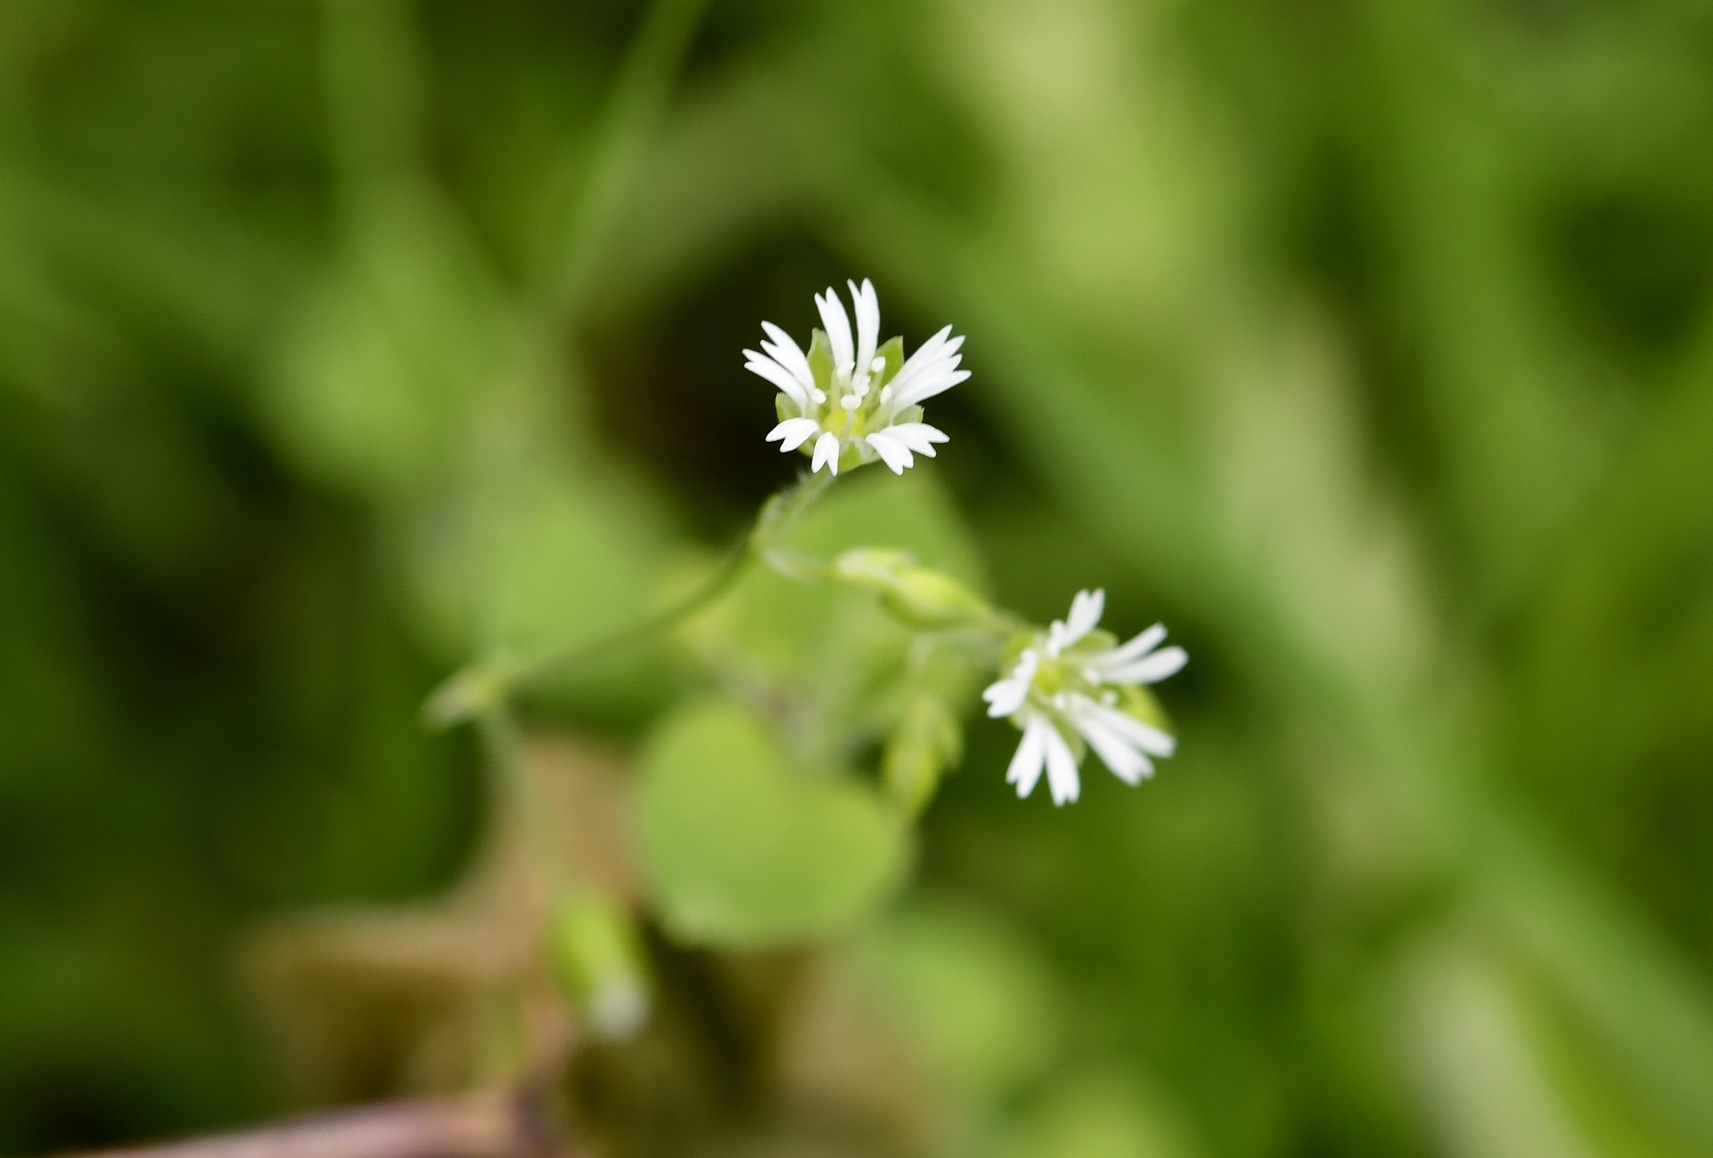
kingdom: Plantae
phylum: Tracheophyta
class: Magnoliopsida
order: Caryophyllales
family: Caryophyllaceae
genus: Drymaria
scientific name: Drymaria villosa
